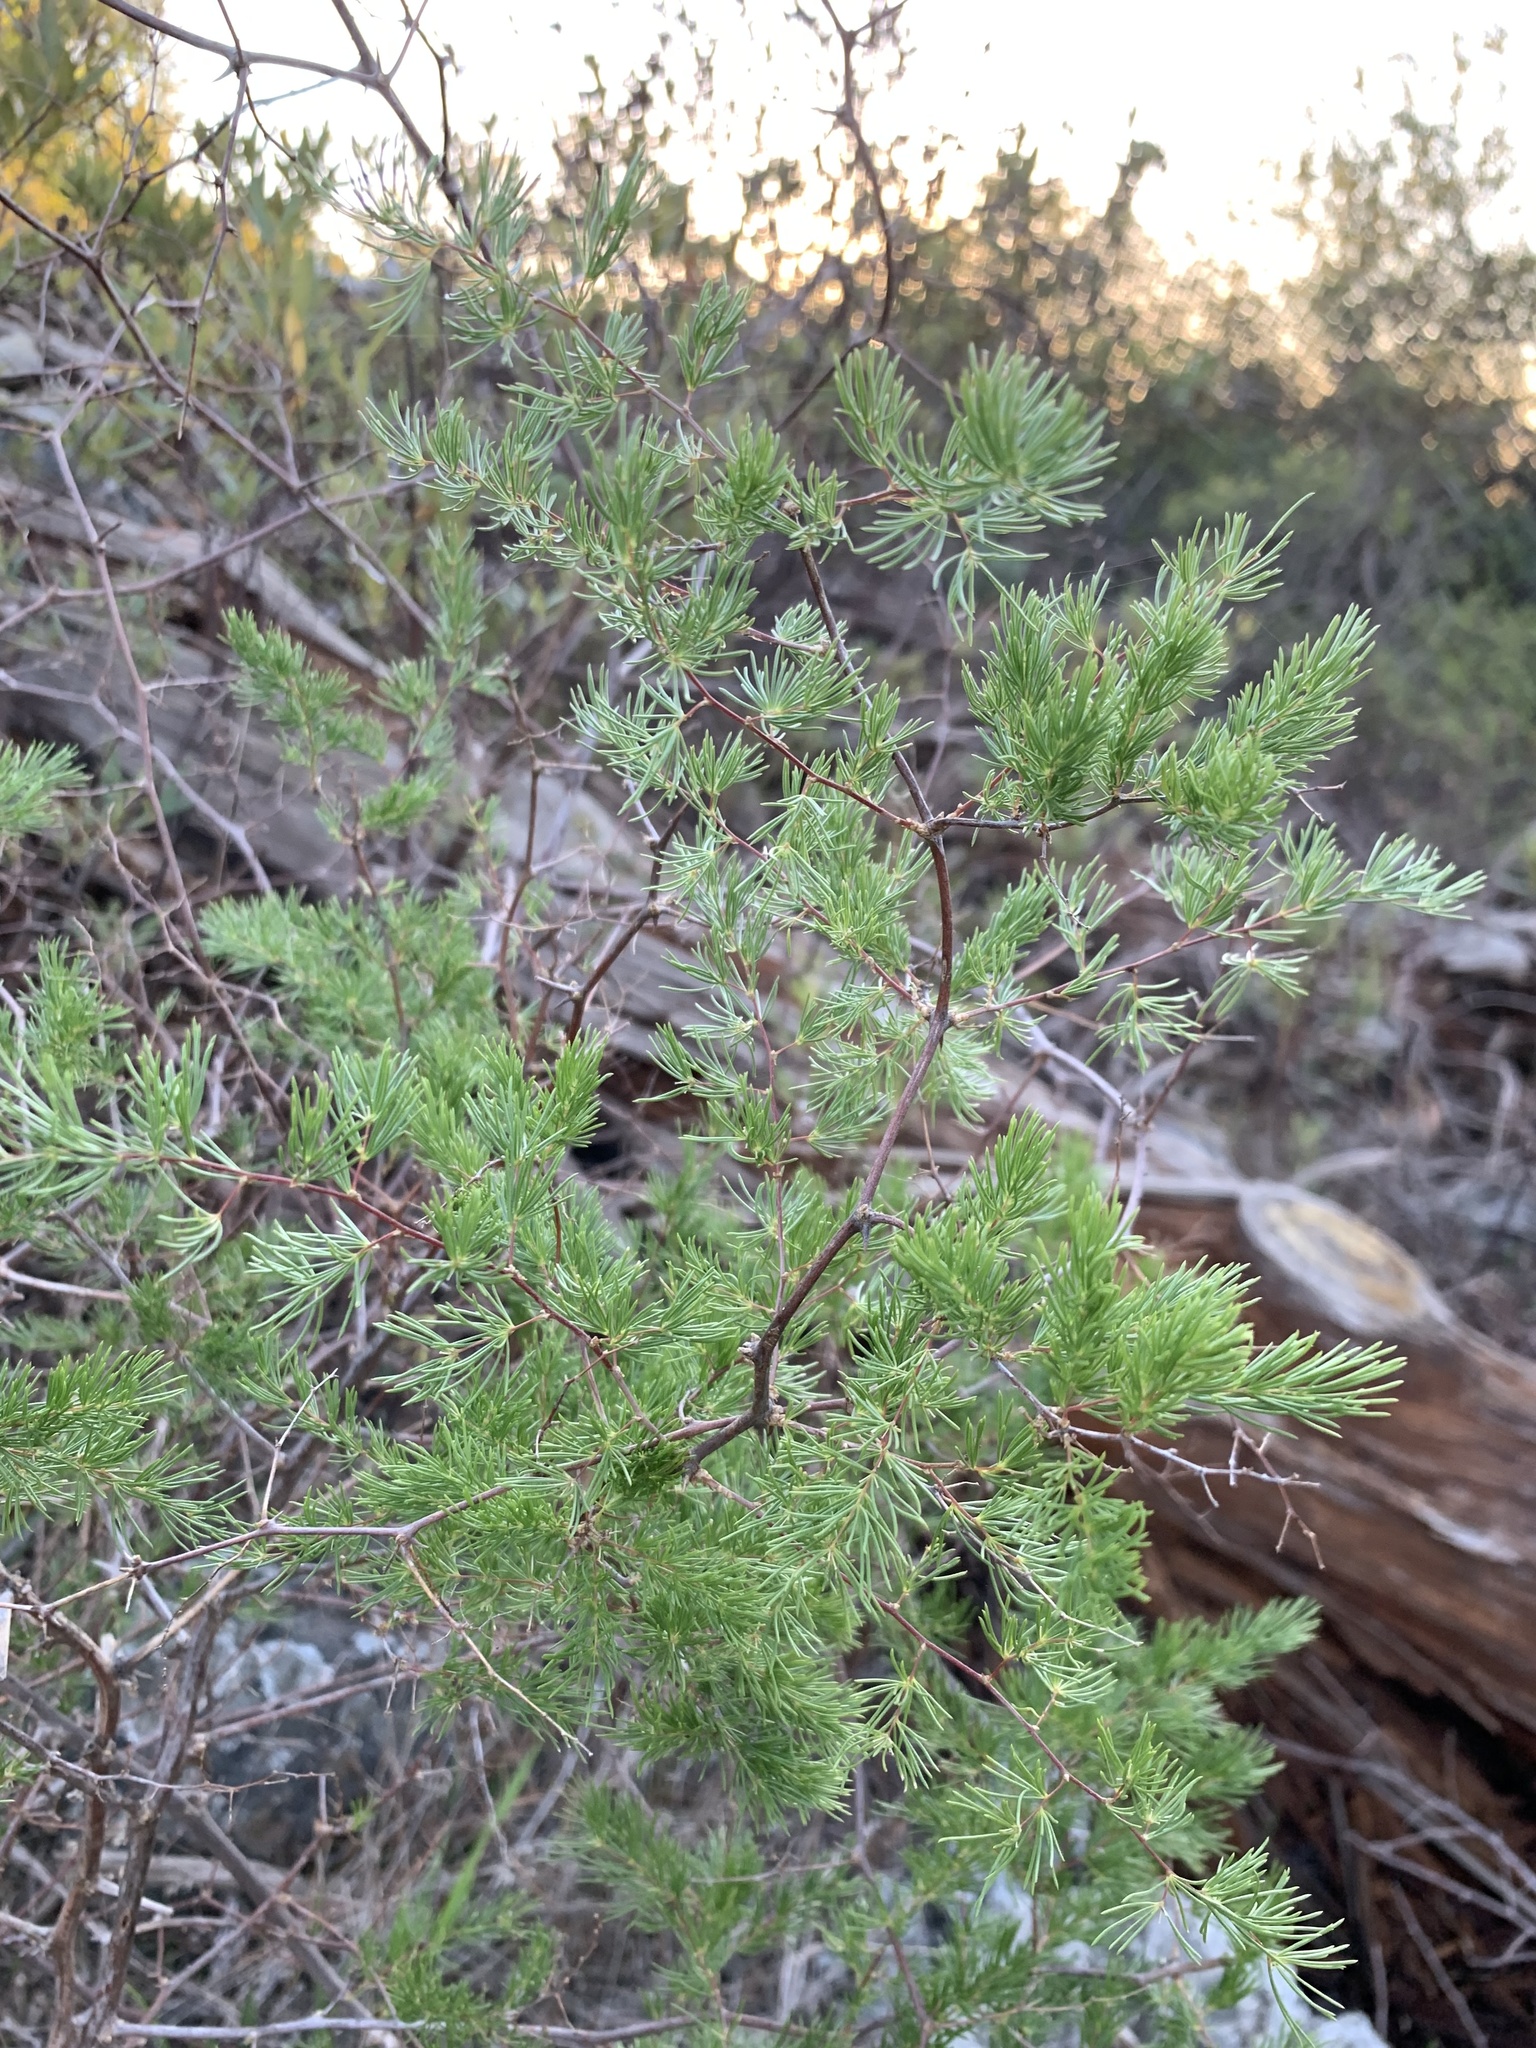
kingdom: Plantae
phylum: Tracheophyta
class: Liliopsida
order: Asparagales
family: Asparagaceae
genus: Asparagus
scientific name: Asparagus rubicundus
